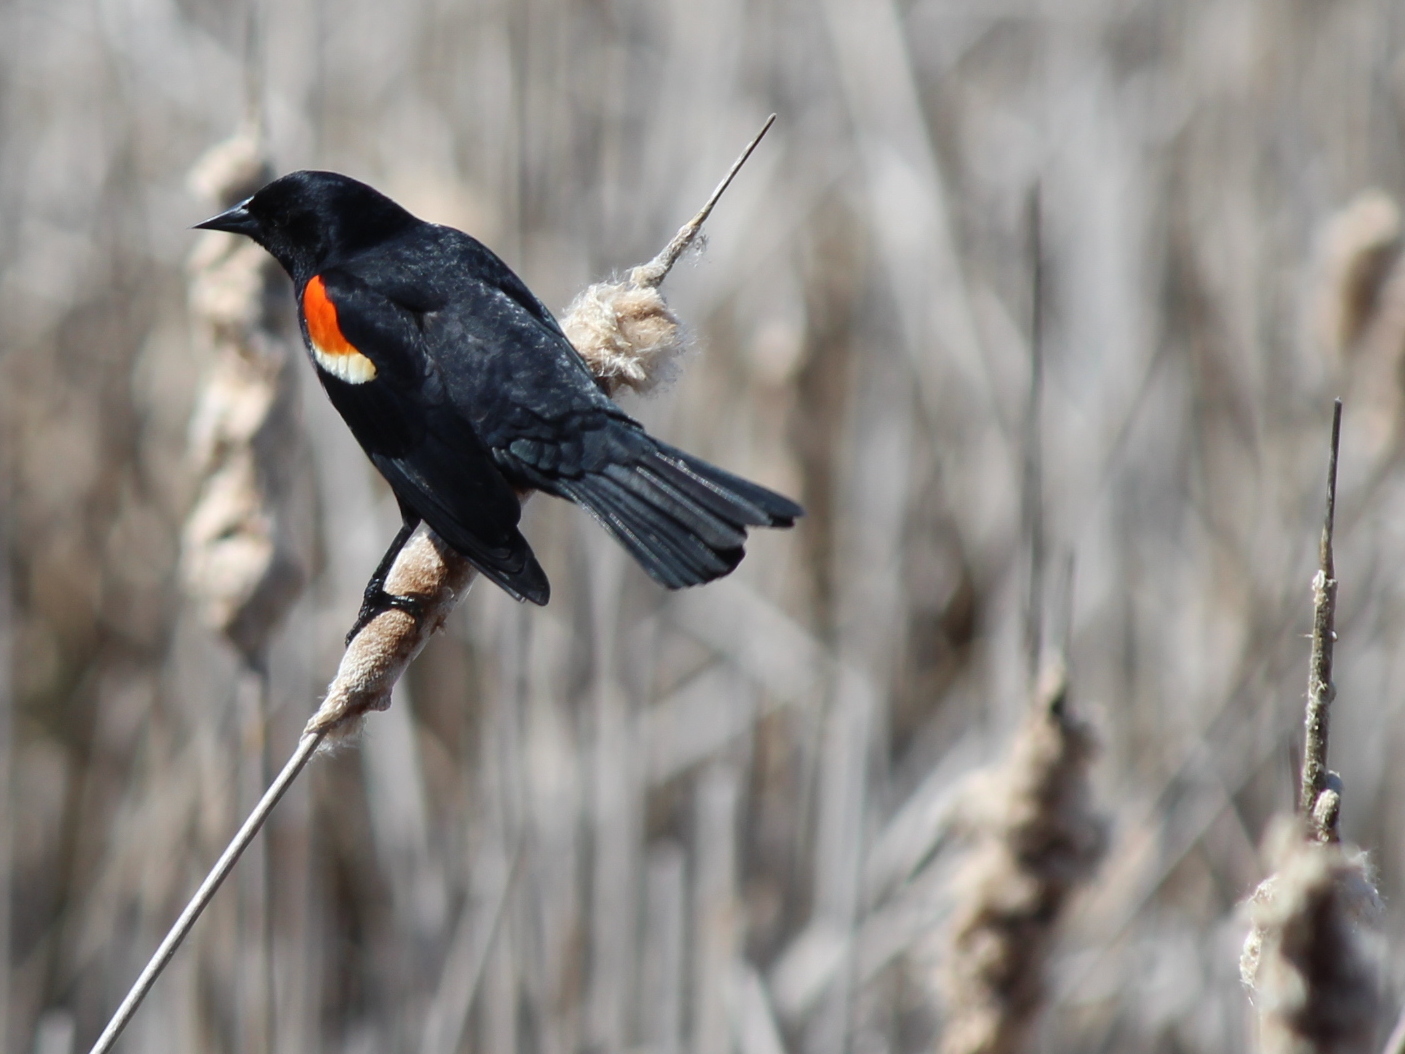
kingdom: Animalia
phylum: Chordata
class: Aves
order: Passeriformes
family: Icteridae
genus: Agelaius
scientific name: Agelaius phoeniceus
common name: Red-winged blackbird
